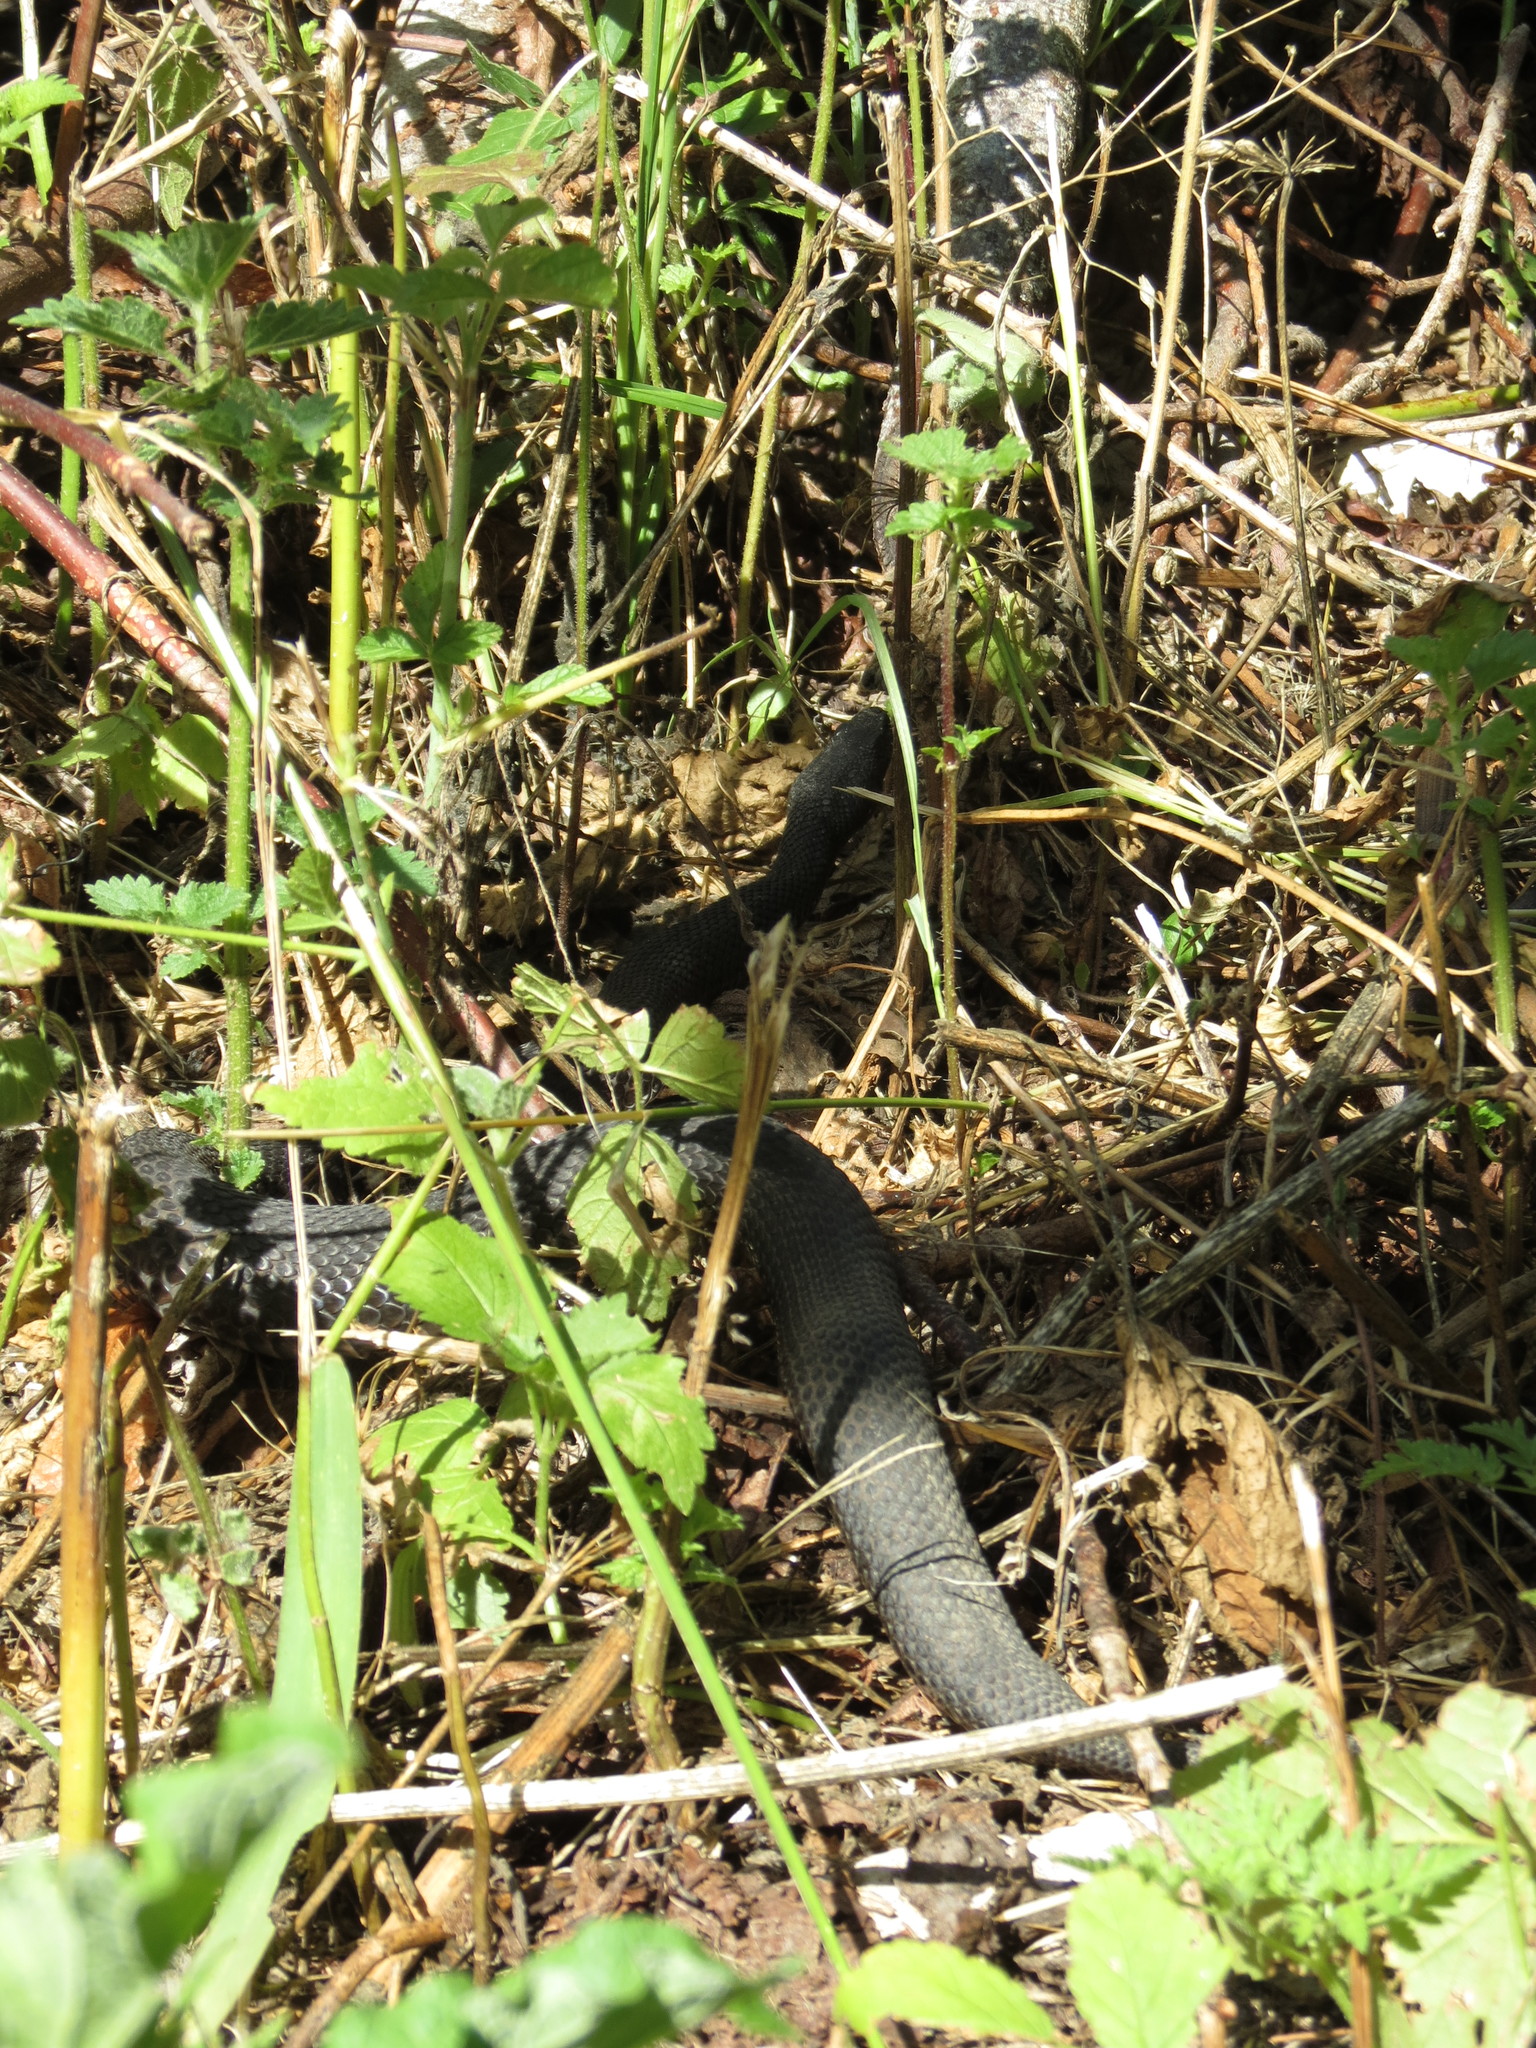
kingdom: Animalia
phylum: Chordata
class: Squamata
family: Viperidae
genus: Vipera
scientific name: Vipera aspis
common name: Asp viper
